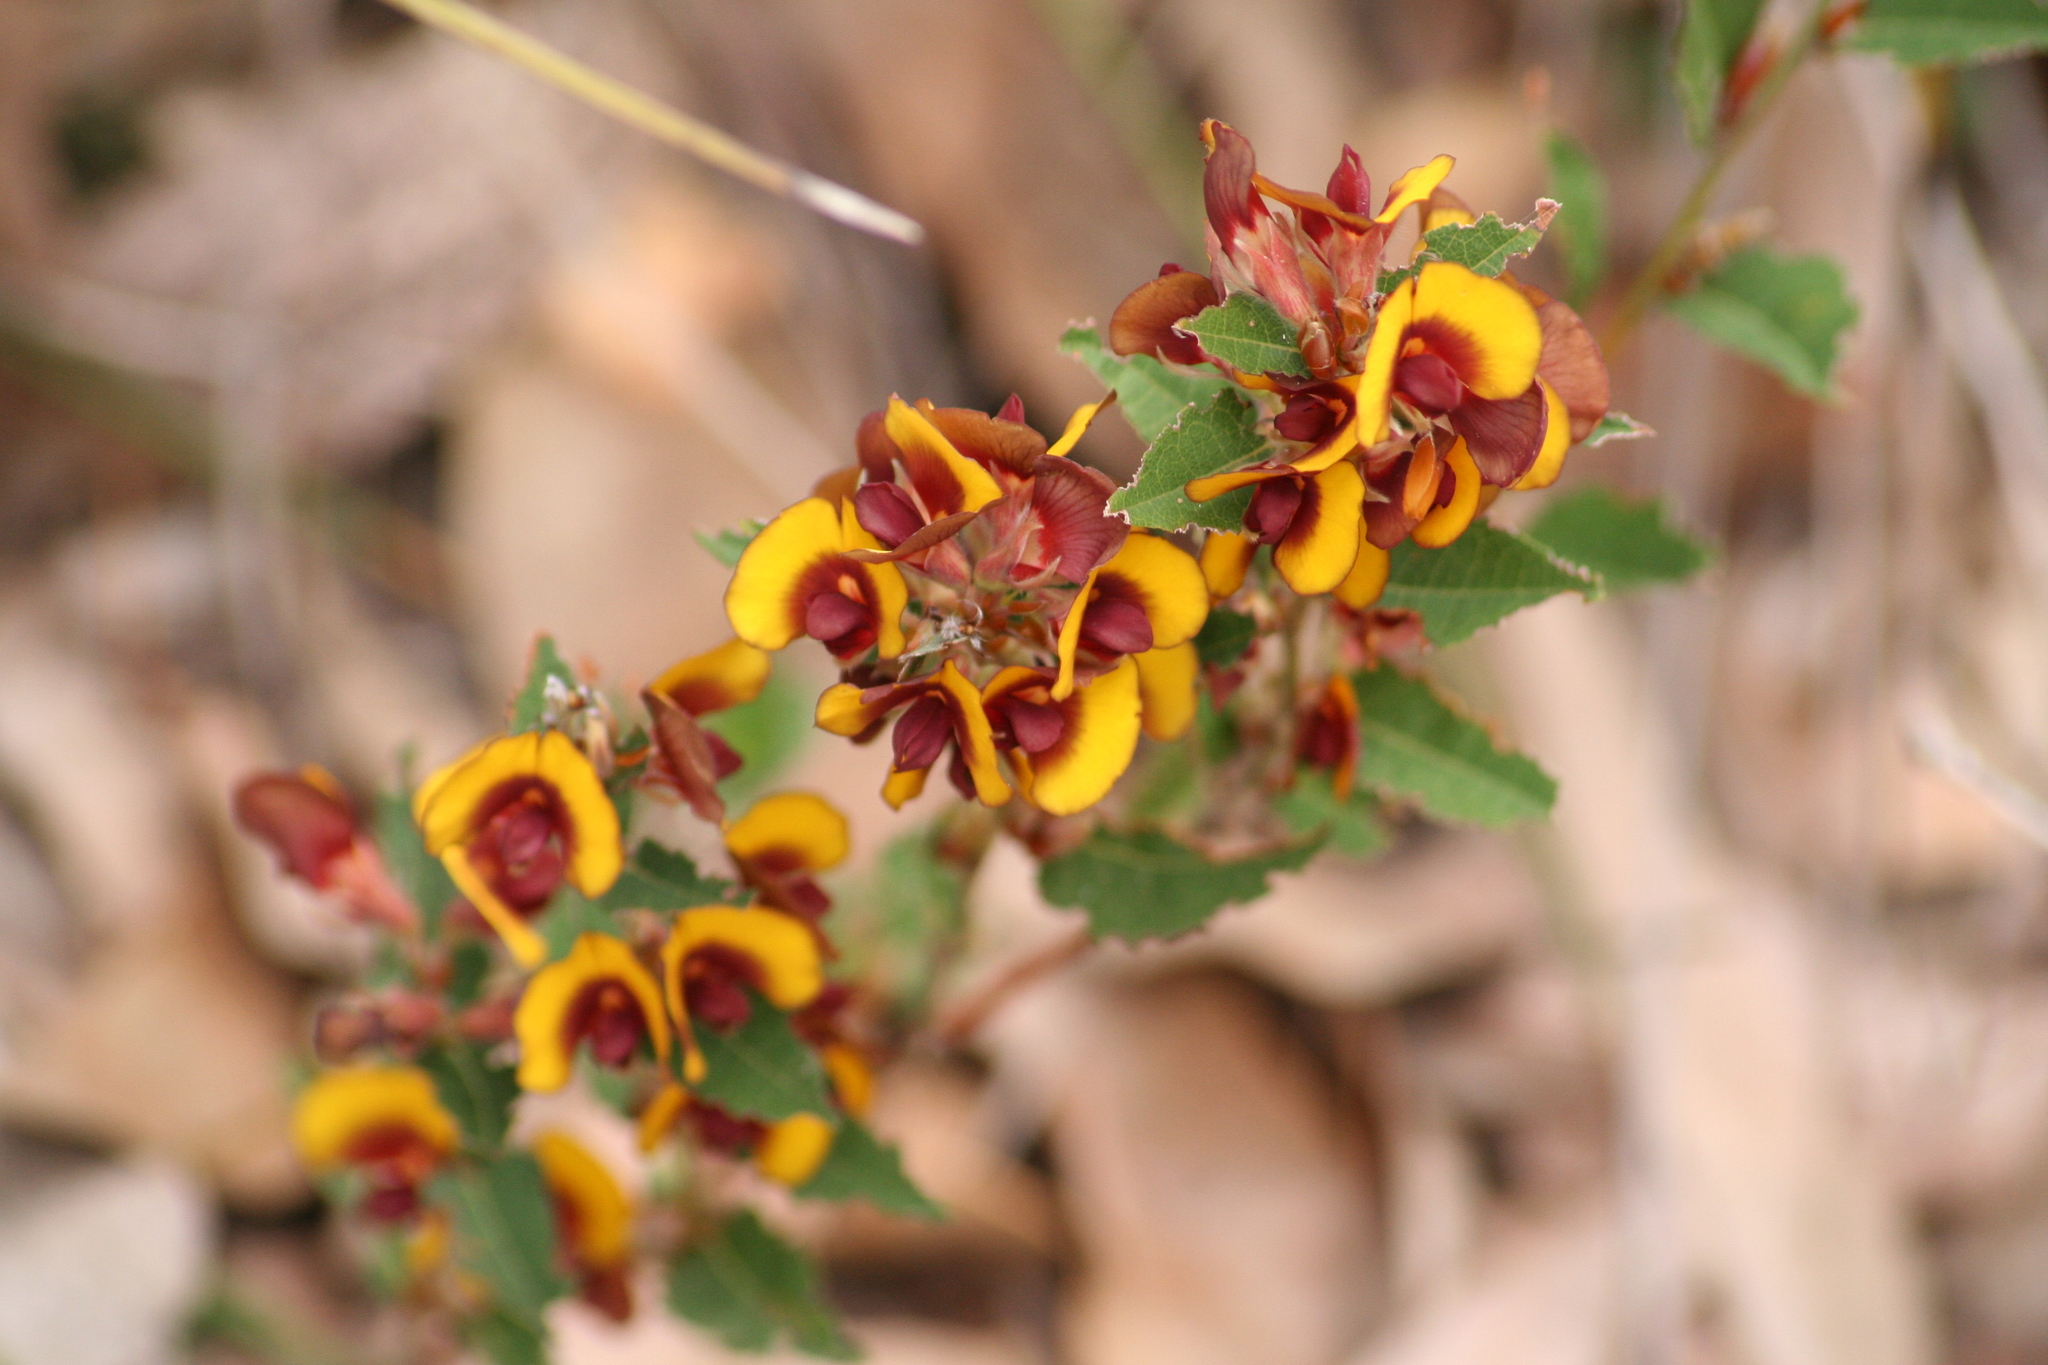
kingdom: Plantae
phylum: Tracheophyta
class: Magnoliopsida
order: Fabales
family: Fabaceae
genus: Bossiaea
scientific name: Bossiaea ornata
